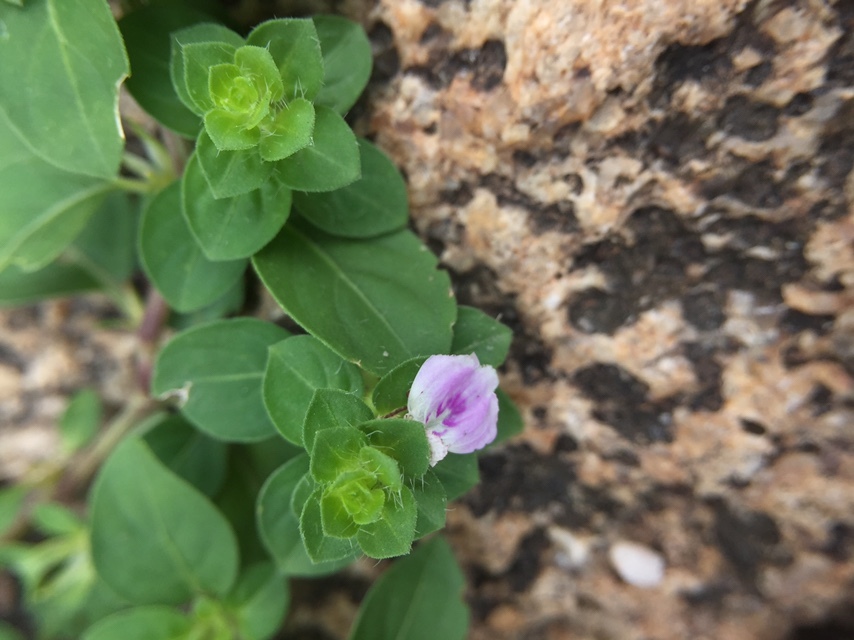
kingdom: Plantae
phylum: Tracheophyta
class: Magnoliopsida
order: Lamiales
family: Acanthaceae
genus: Justicia
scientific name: Justicia glauca
